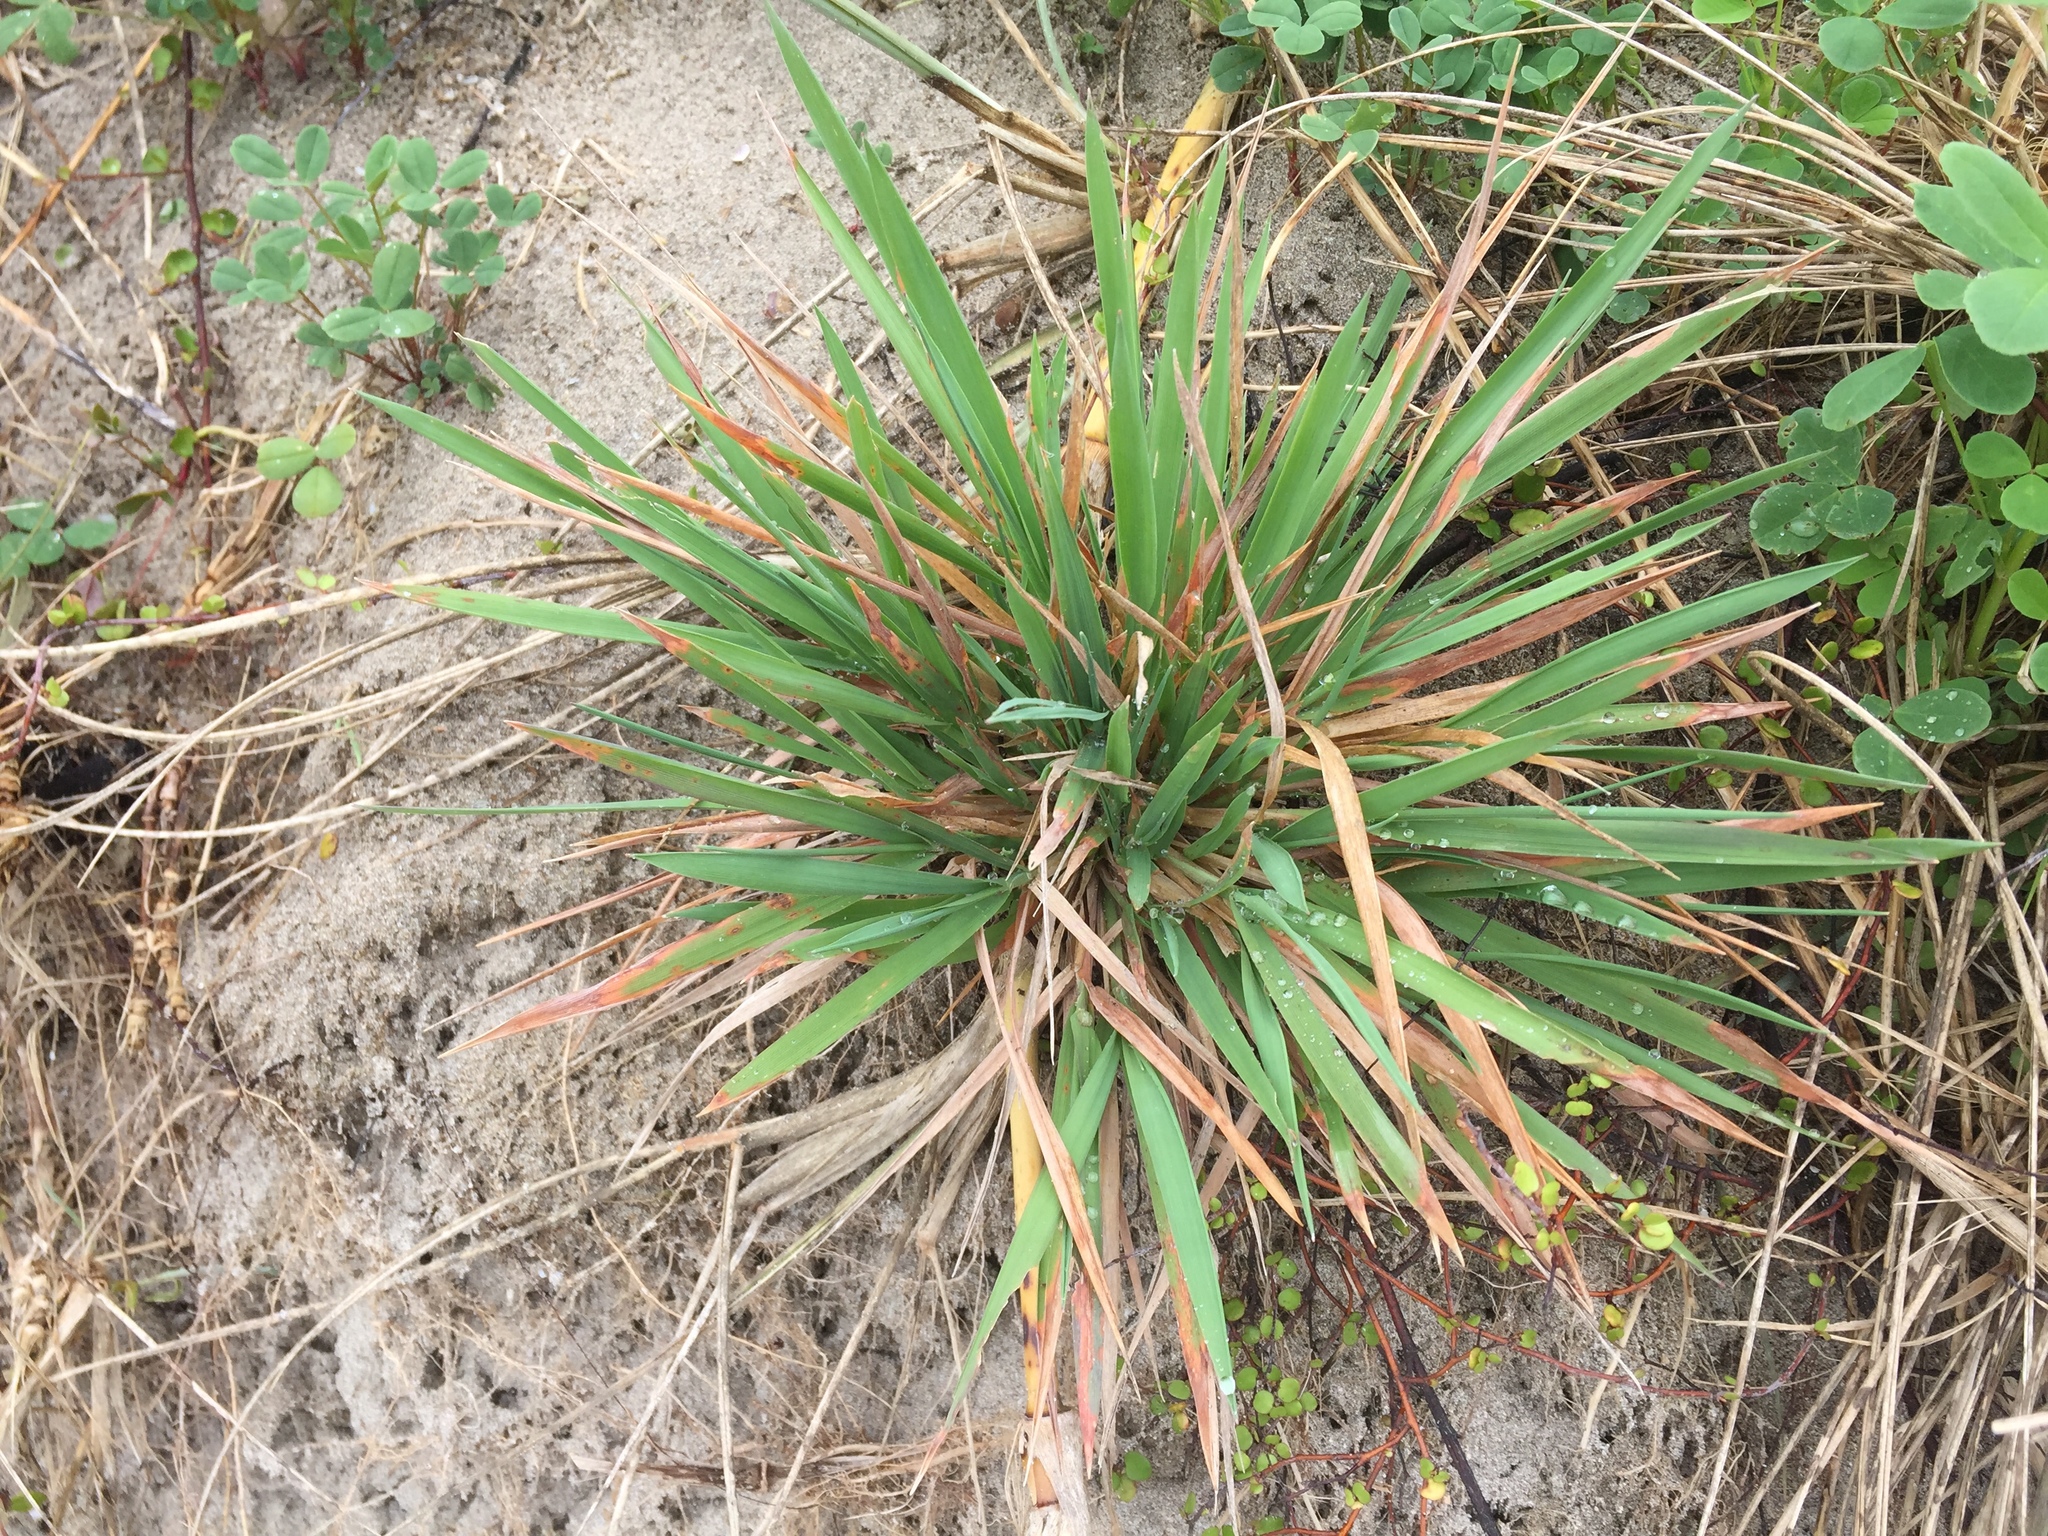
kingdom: Plantae
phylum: Tracheophyta
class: Liliopsida
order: Poales
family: Poaceae
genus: Lachnagrostis
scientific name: Lachnagrostis billardierei
